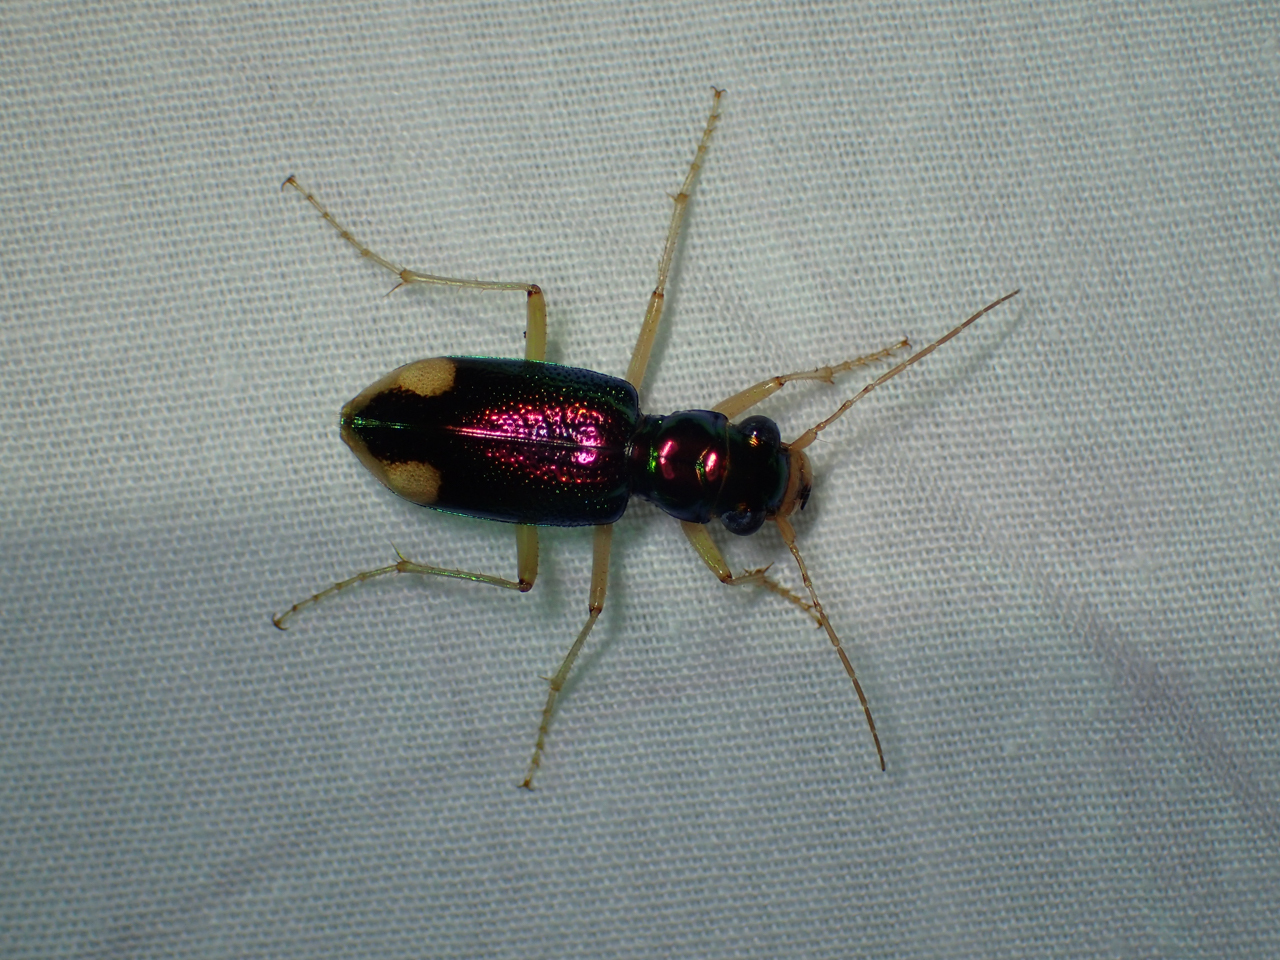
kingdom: Animalia
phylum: Arthropoda
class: Insecta
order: Coleoptera
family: Carabidae
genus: Tetracha
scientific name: Tetracha carolina
